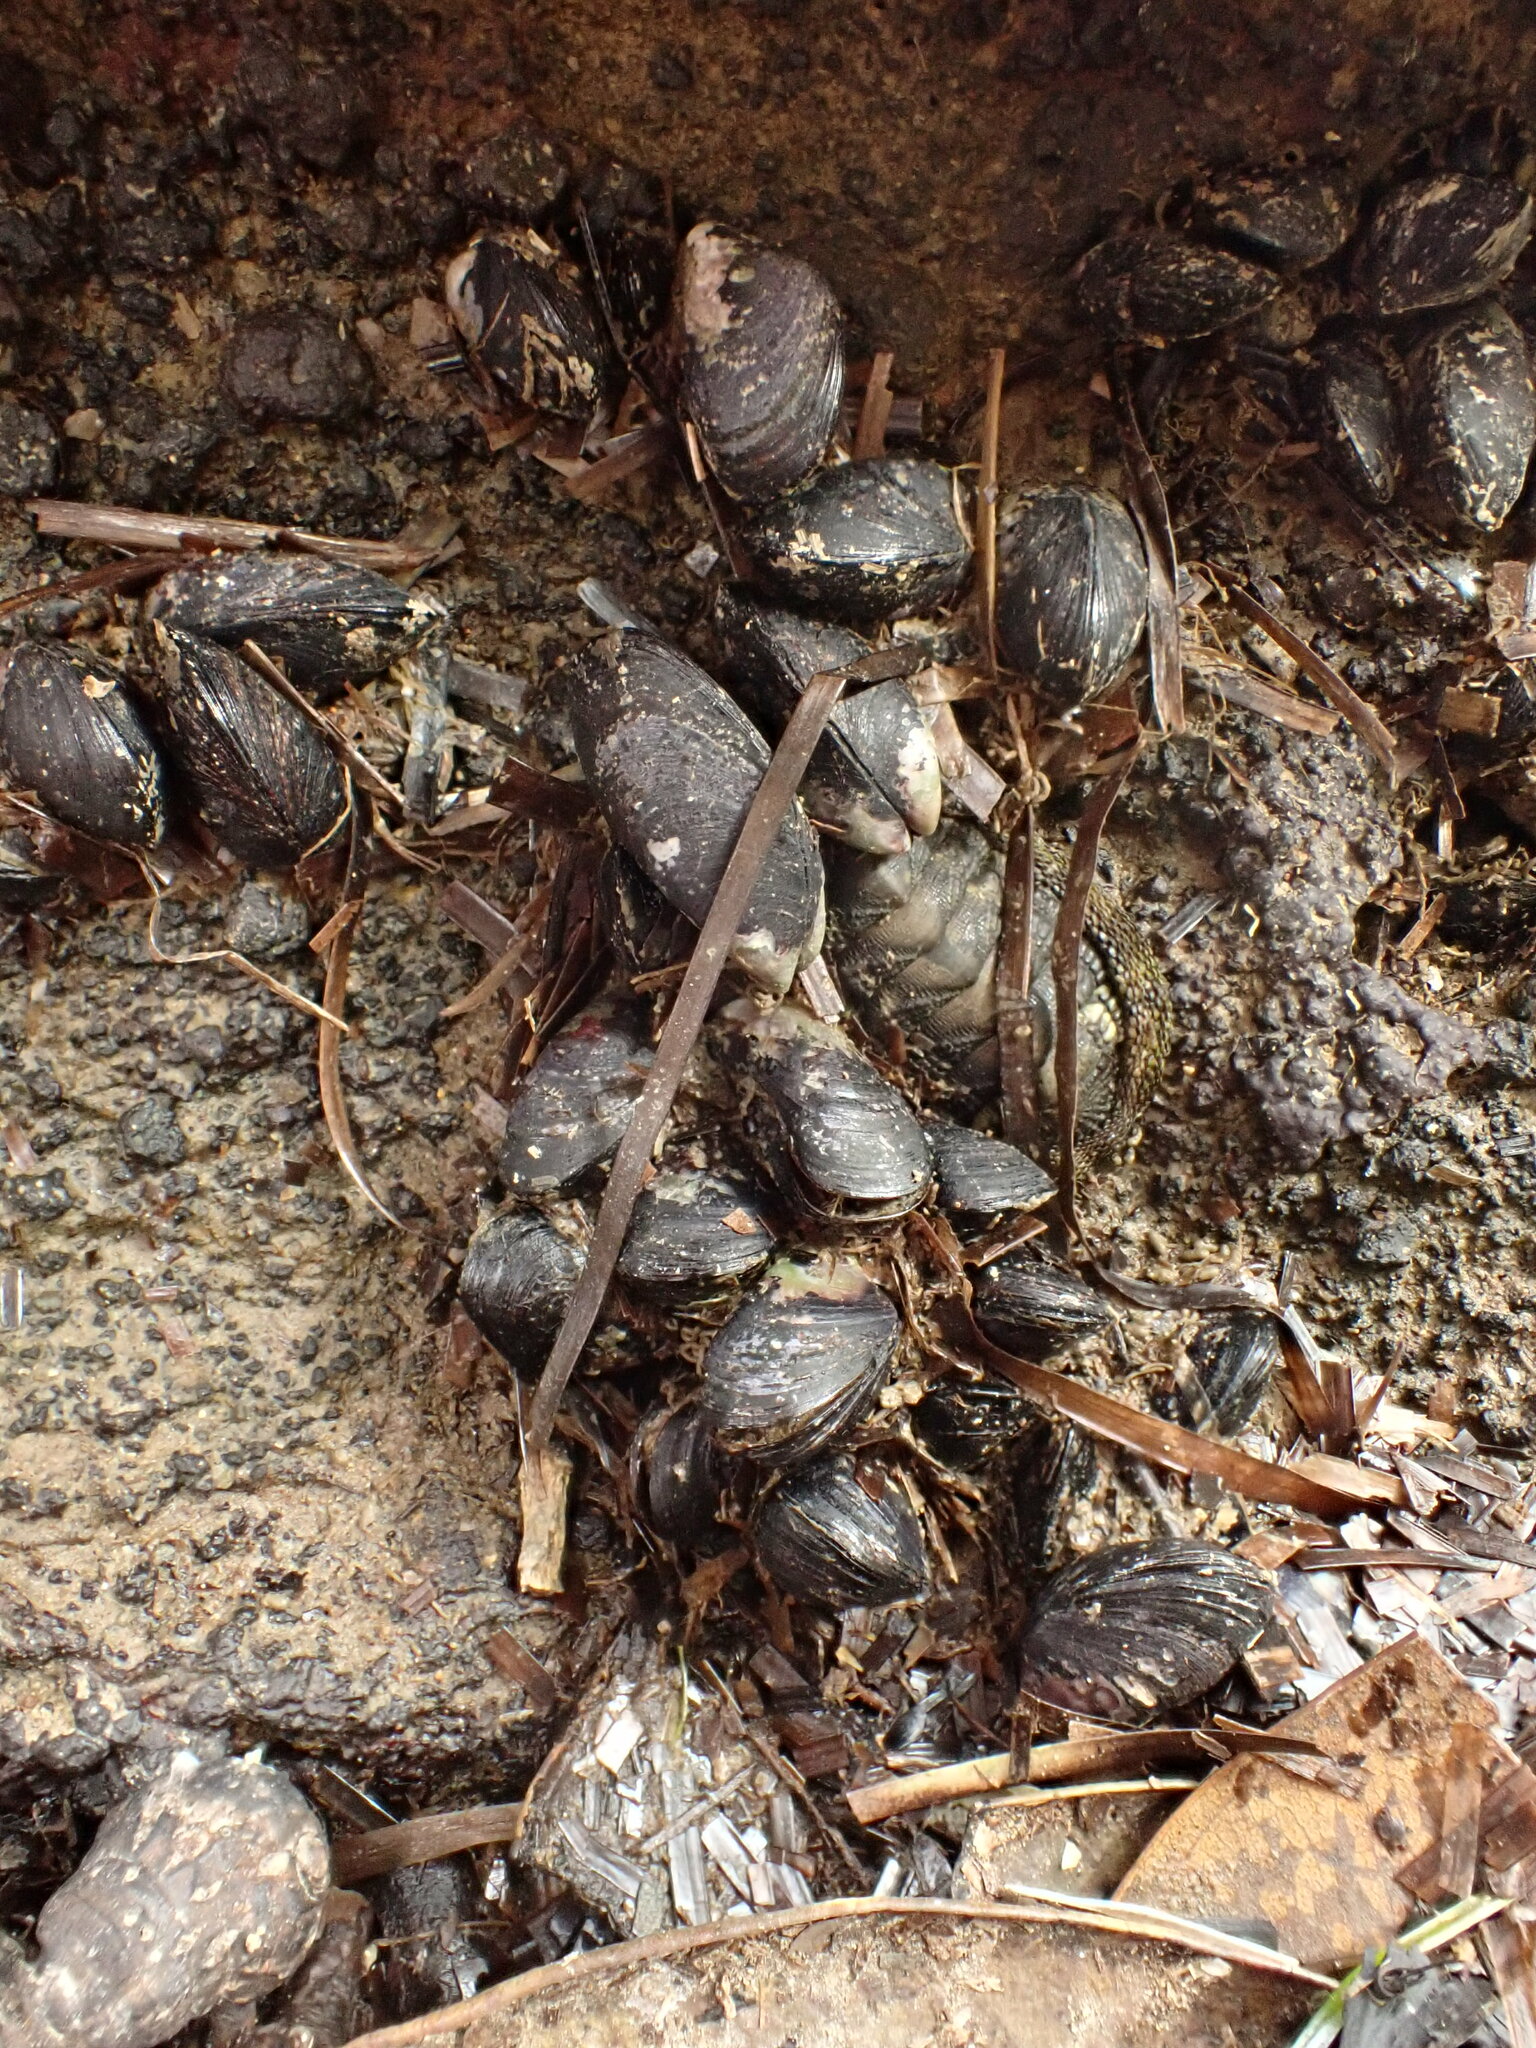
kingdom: Animalia
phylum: Mollusca
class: Bivalvia
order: Mytilida
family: Mytilidae
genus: Xenostrobus
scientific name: Xenostrobus neozelanicus
